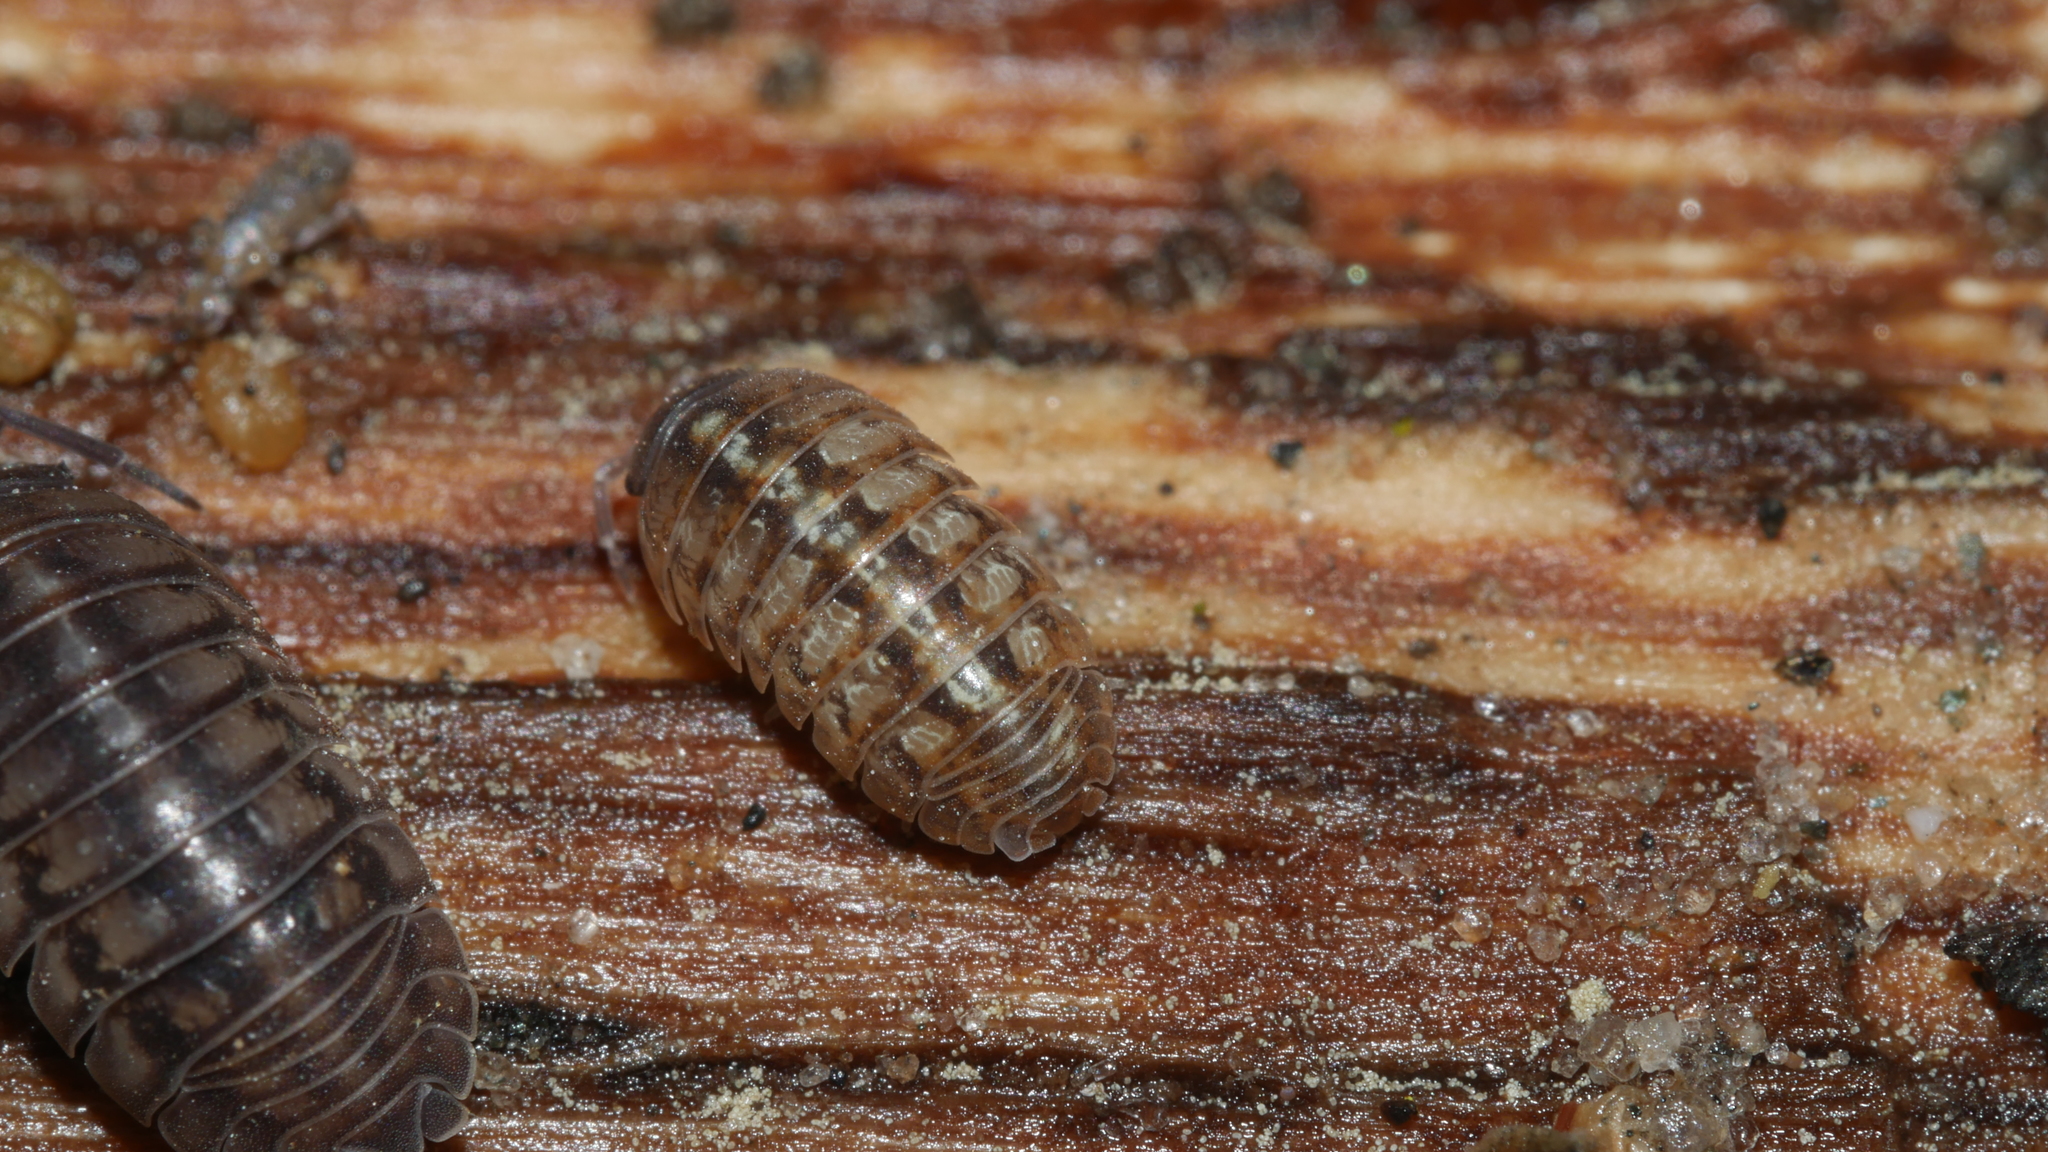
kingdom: Animalia
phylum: Arthropoda
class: Malacostraca
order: Isopoda
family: Armadillidiidae
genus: Armadillidium
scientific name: Armadillidium vulgare
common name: Common pill woodlouse
